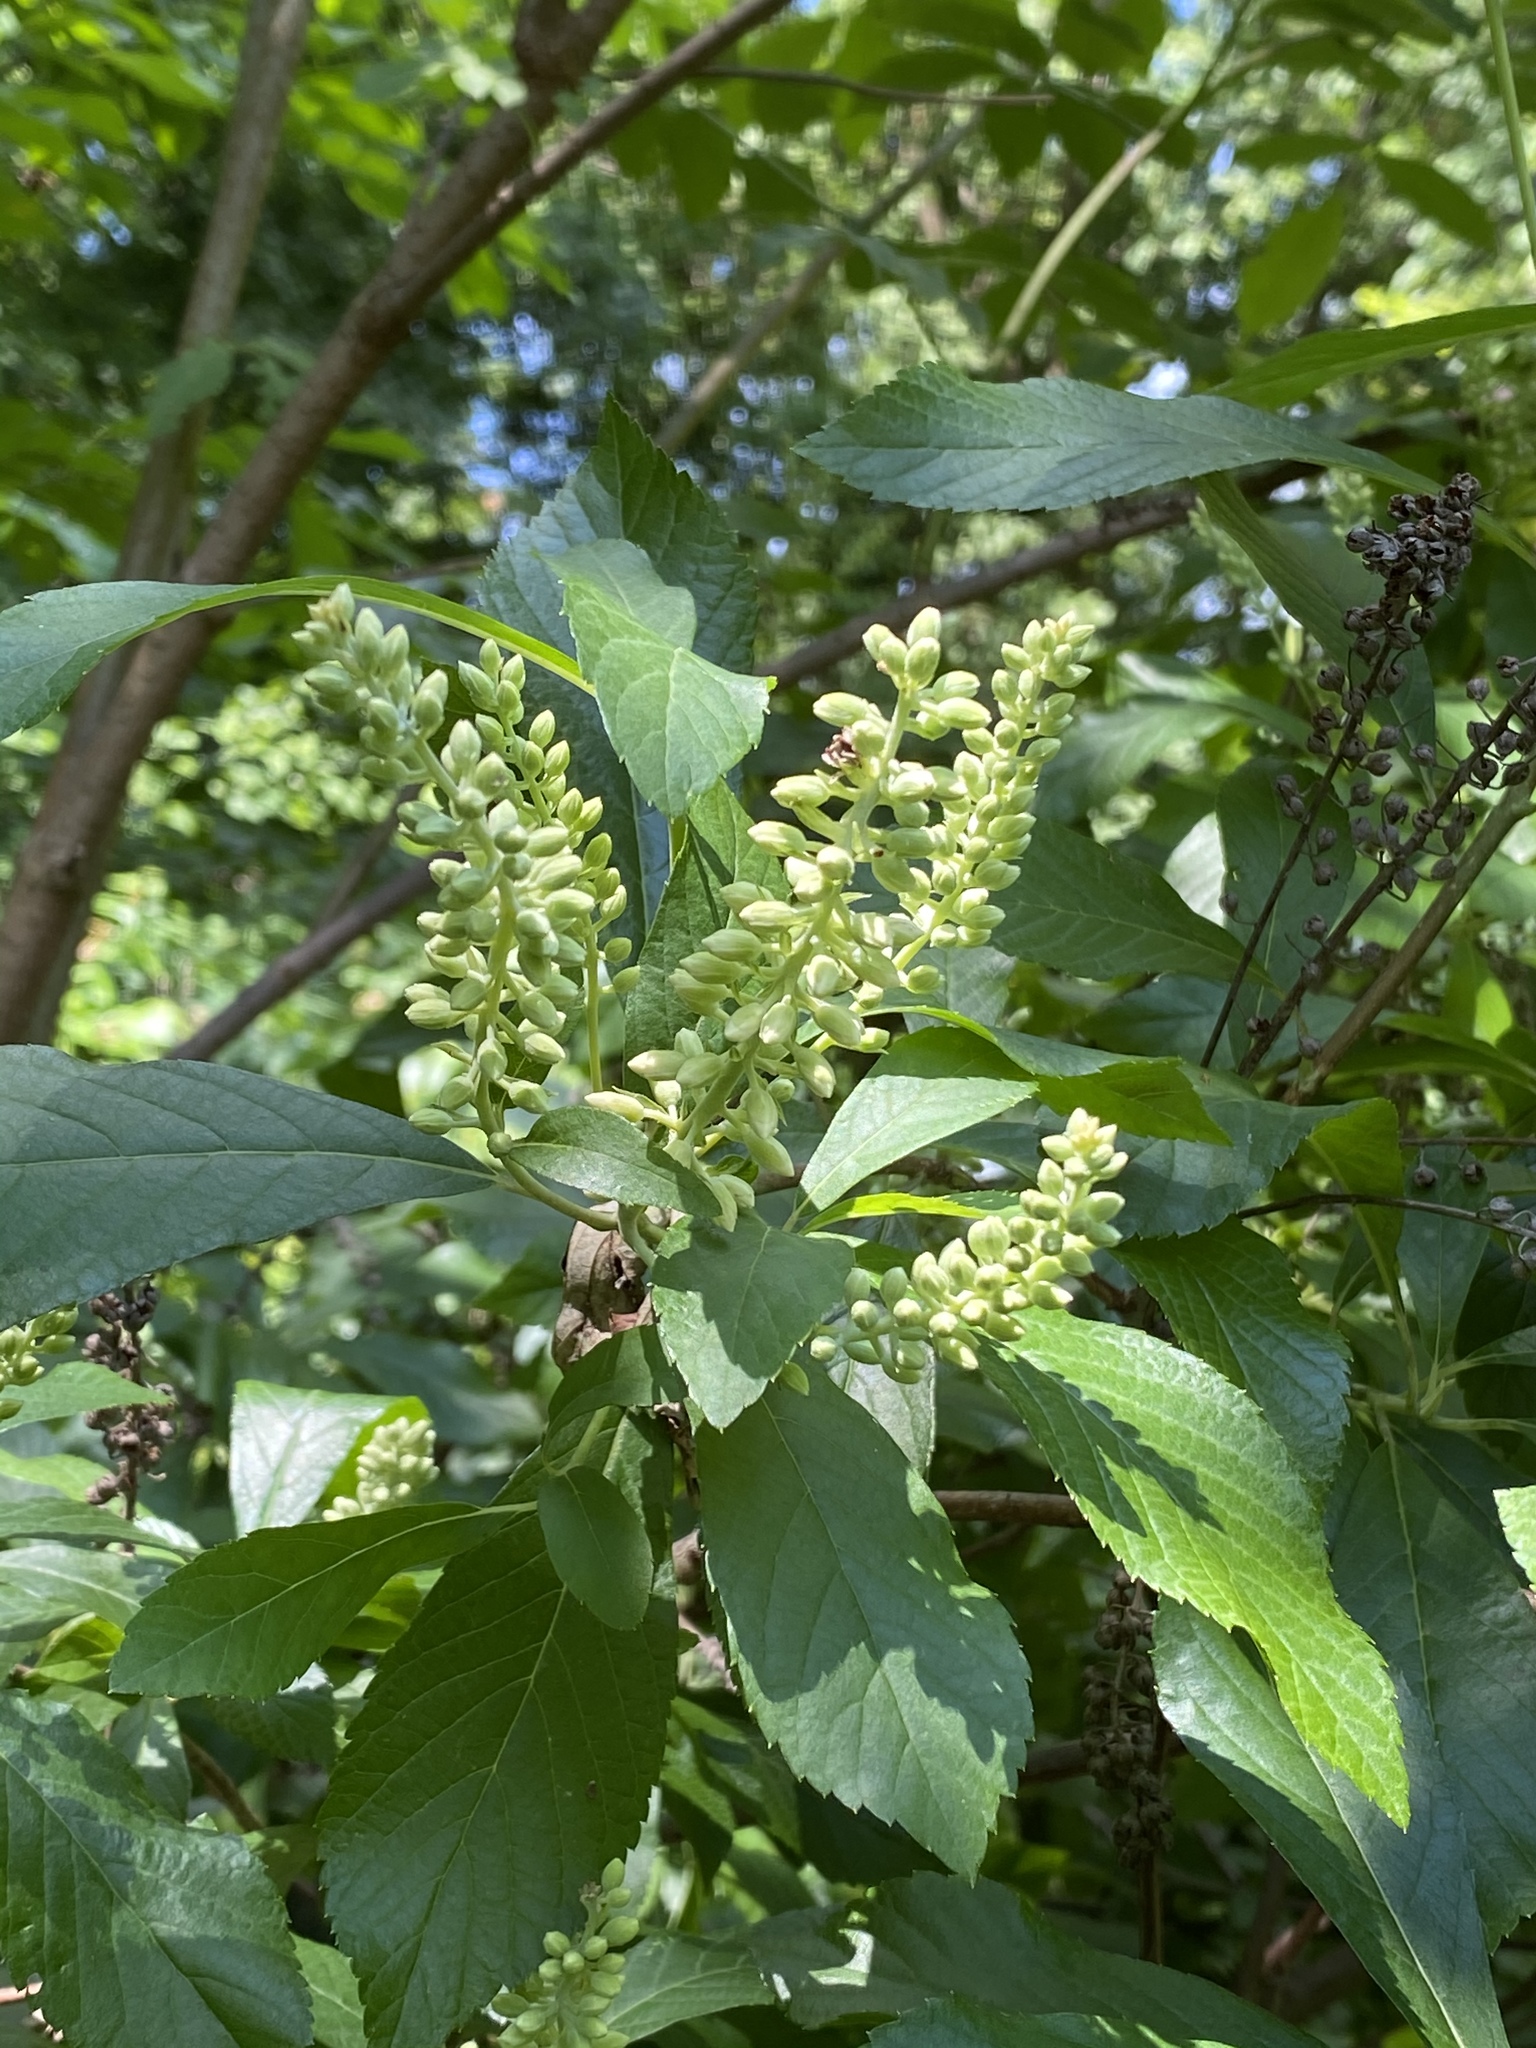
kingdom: Plantae
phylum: Tracheophyta
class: Magnoliopsida
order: Ericales
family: Clethraceae
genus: Clethra
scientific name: Clethra alnifolia
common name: Sweet pepperbush
